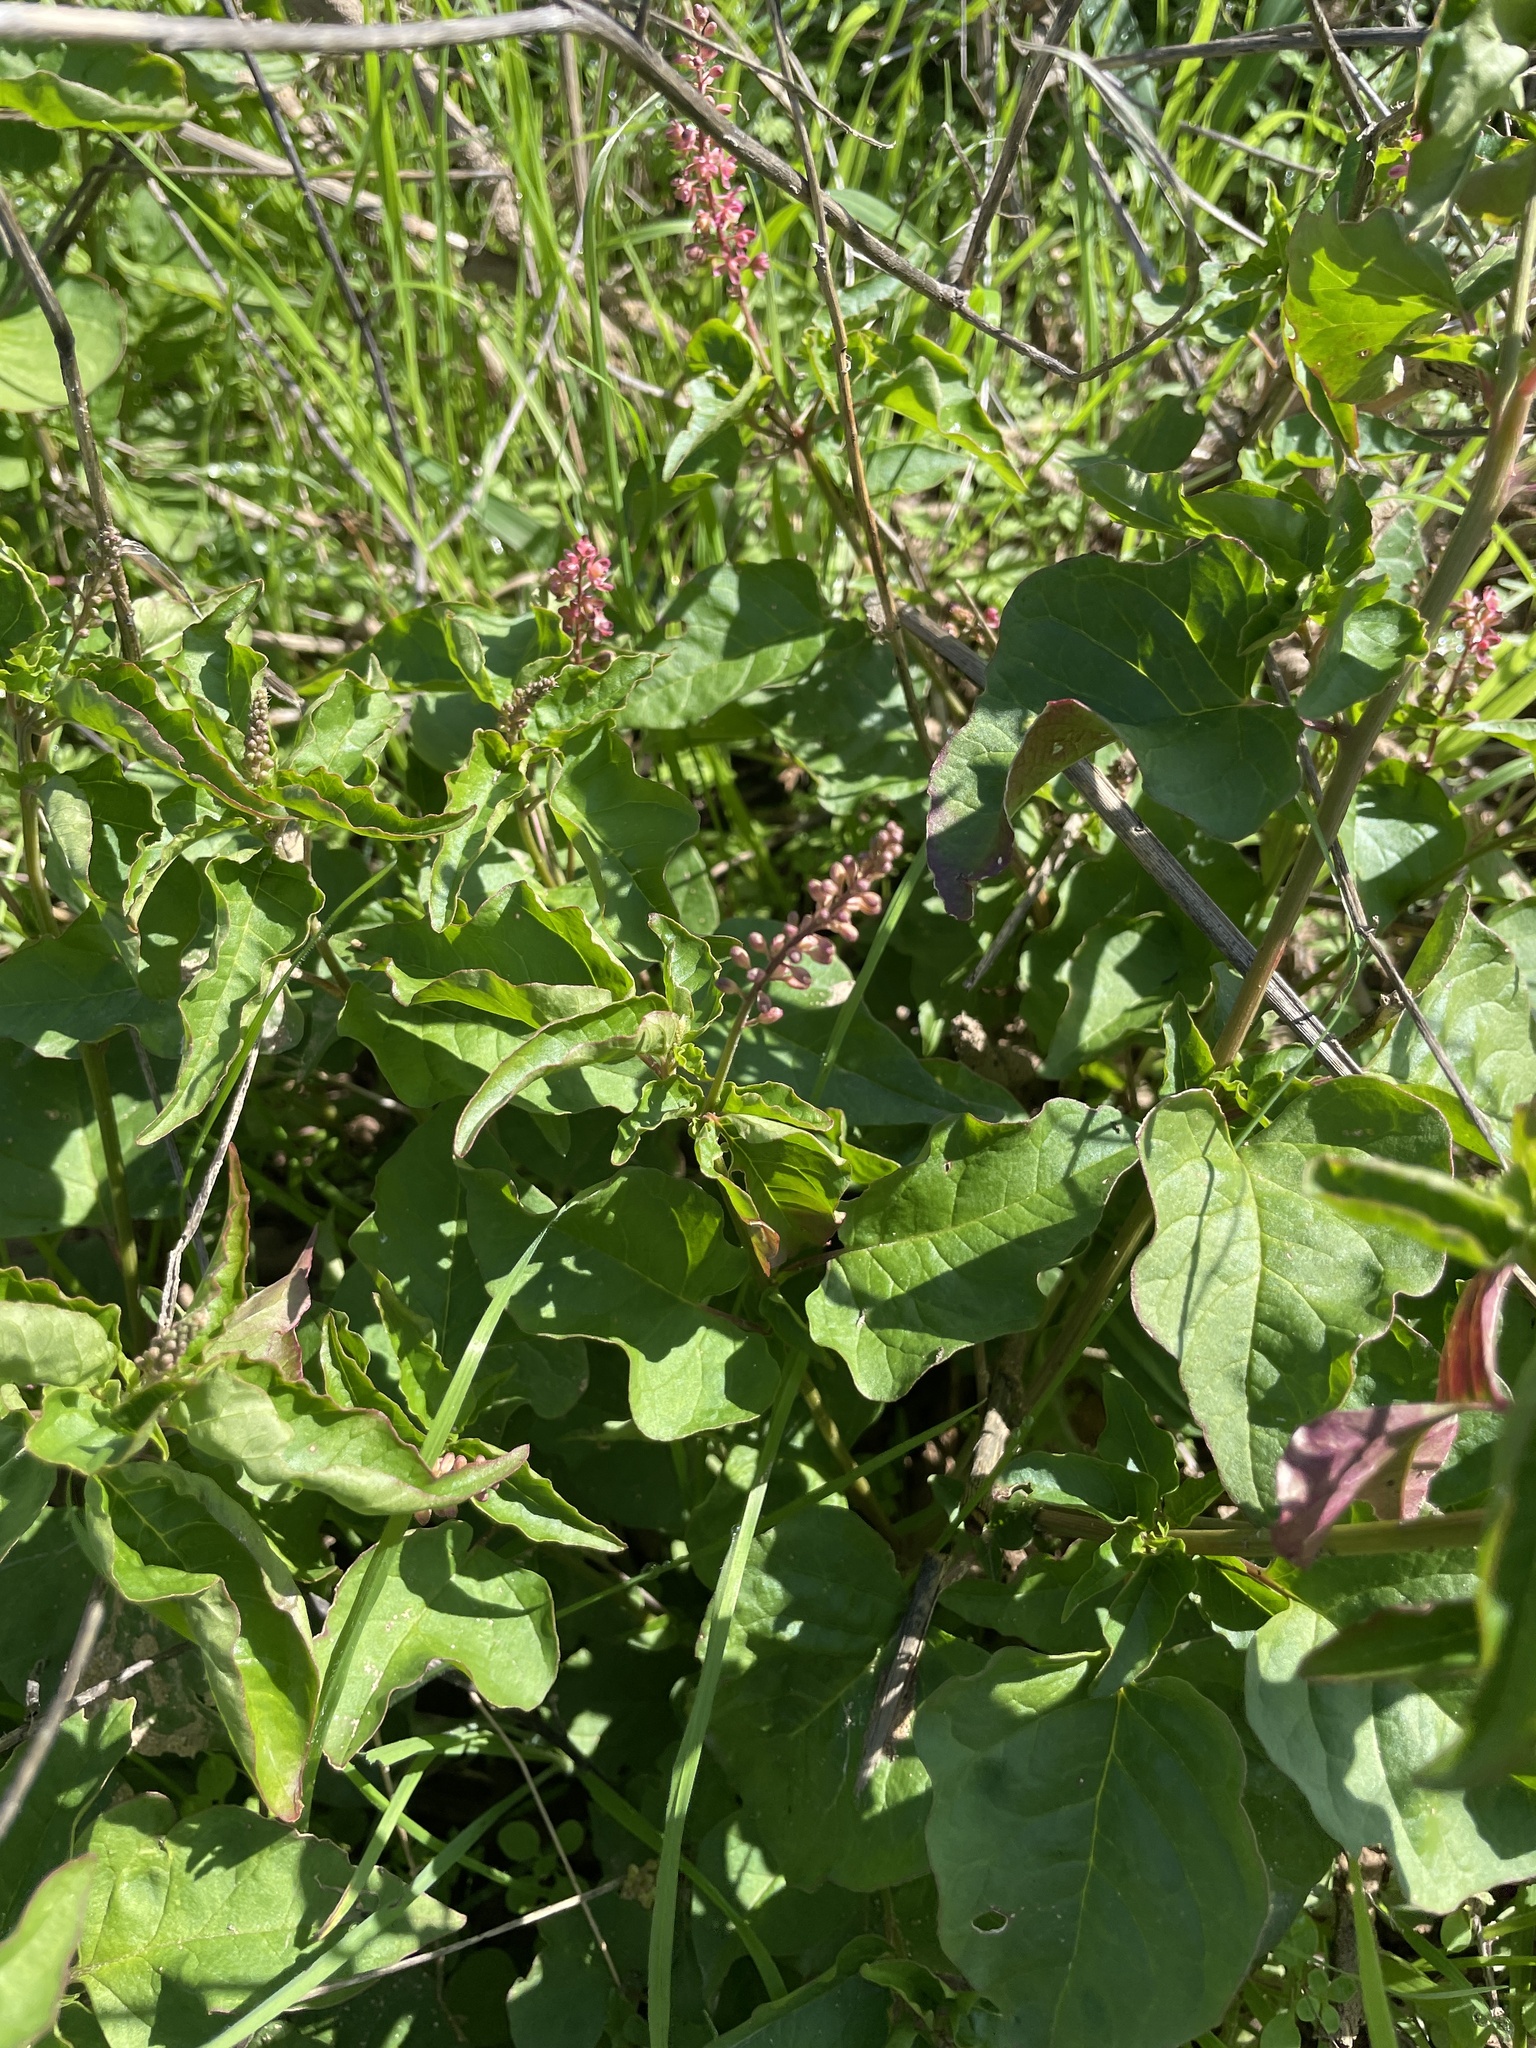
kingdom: Plantae
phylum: Tracheophyta
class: Magnoliopsida
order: Caryophyllales
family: Phytolaccaceae
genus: Rivina
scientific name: Rivina humilis
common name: Rougeplant
